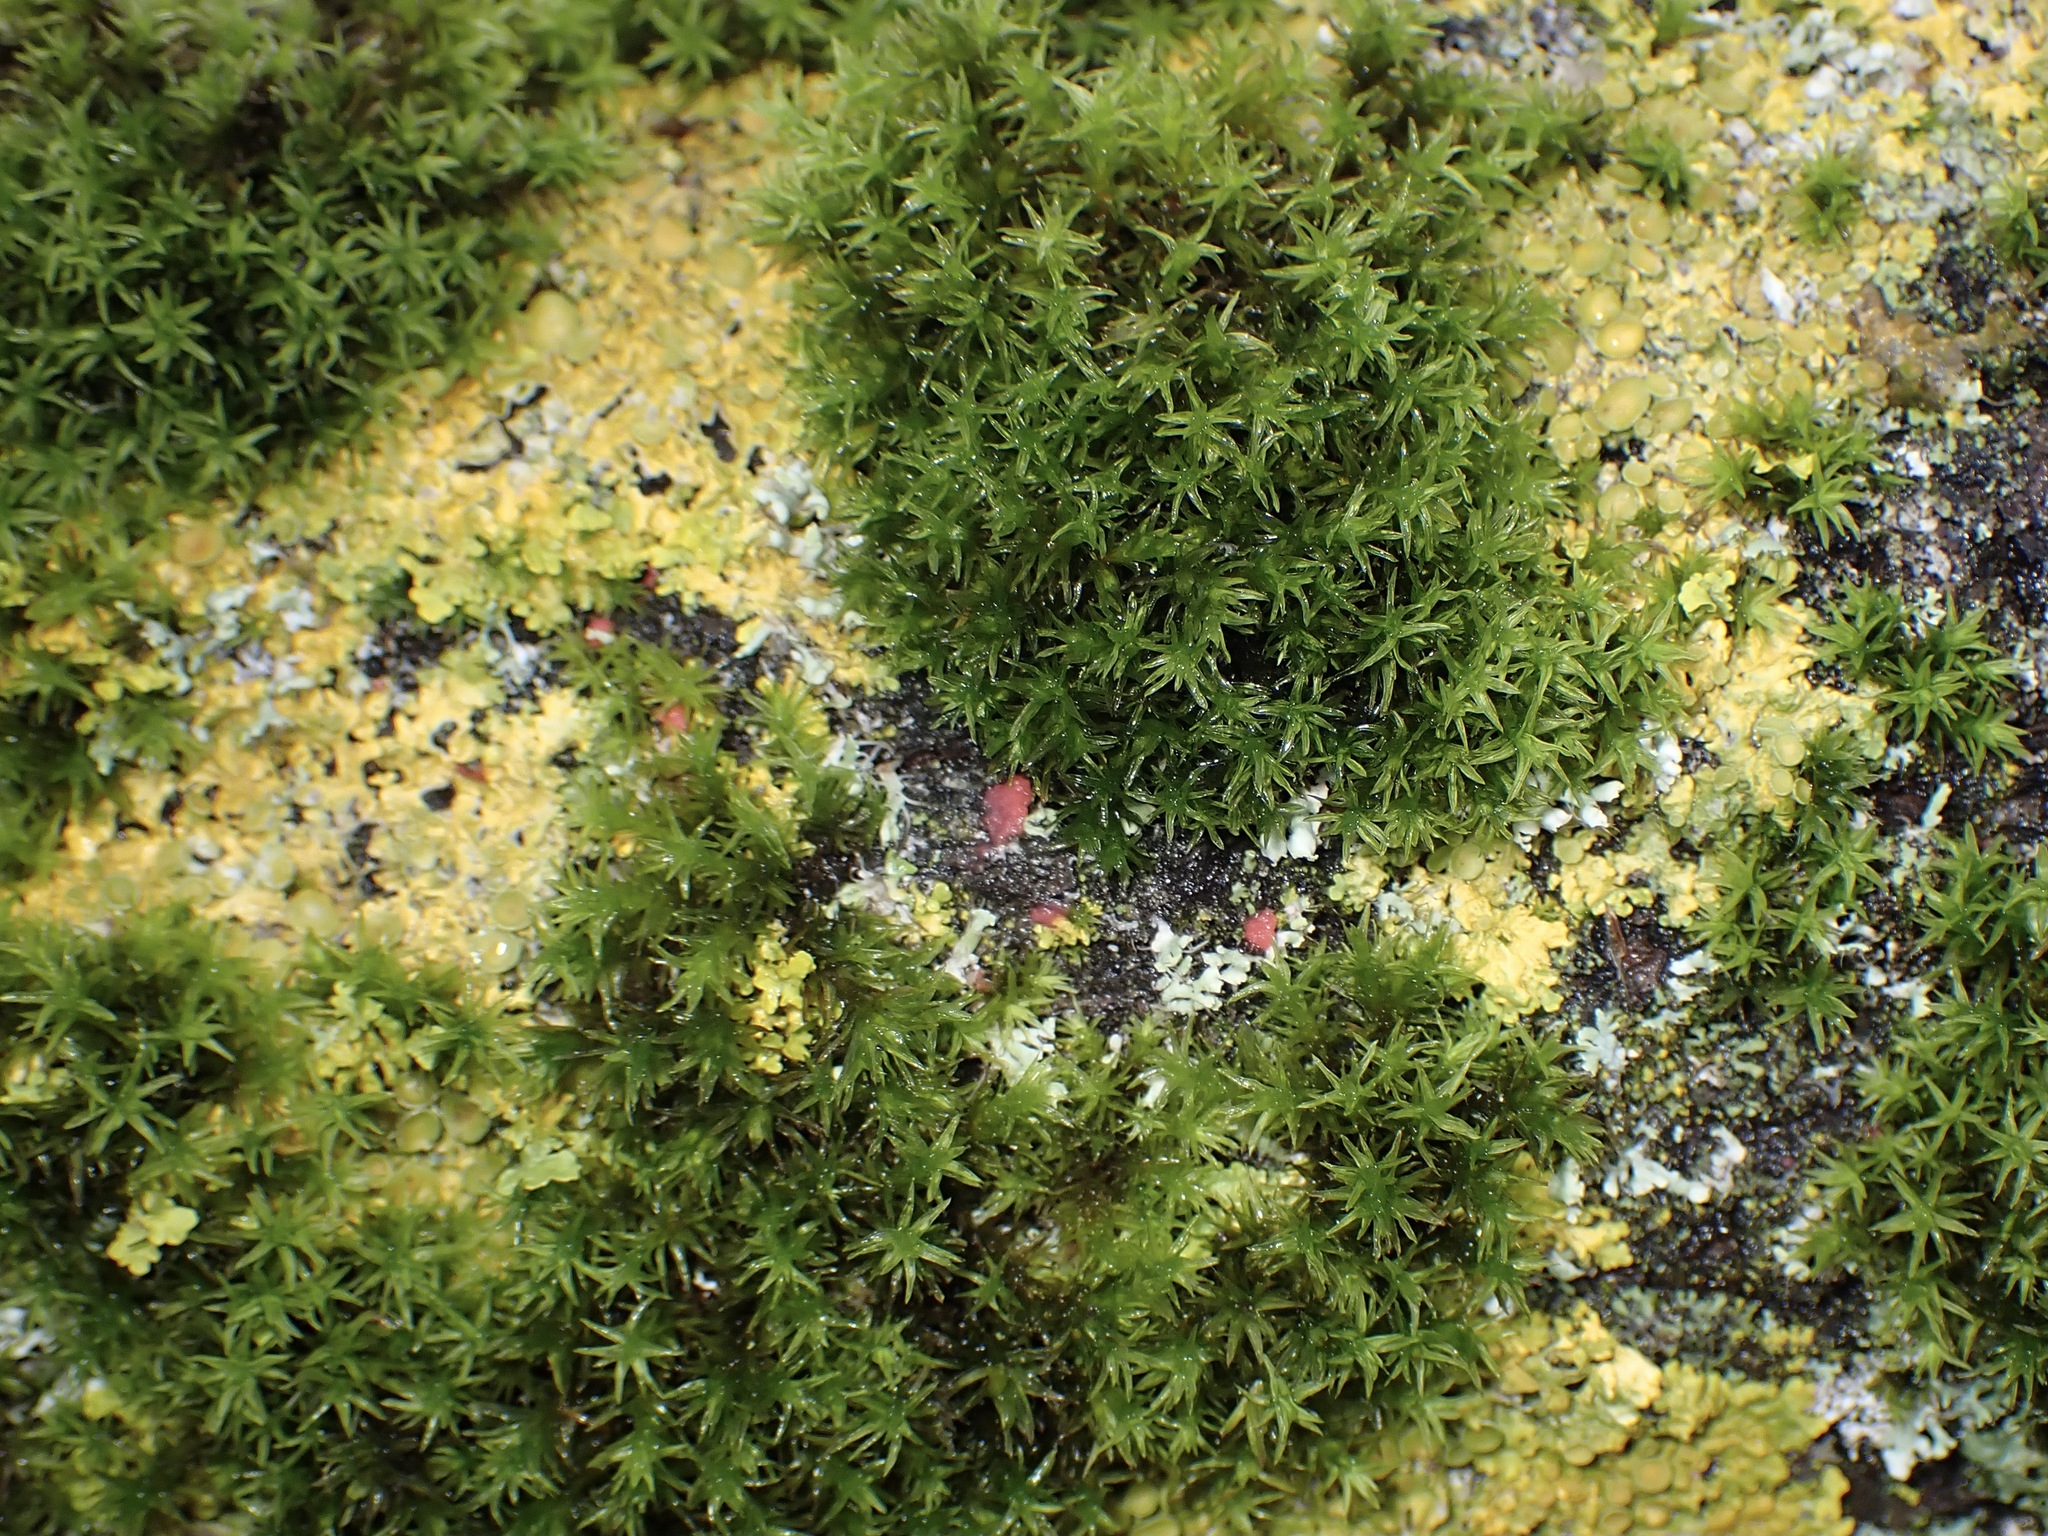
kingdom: Fungi
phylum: Ascomycota
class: Sordariomycetes
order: Hypocreales
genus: Illosporiopsis
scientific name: Illosporiopsis christiansenii
